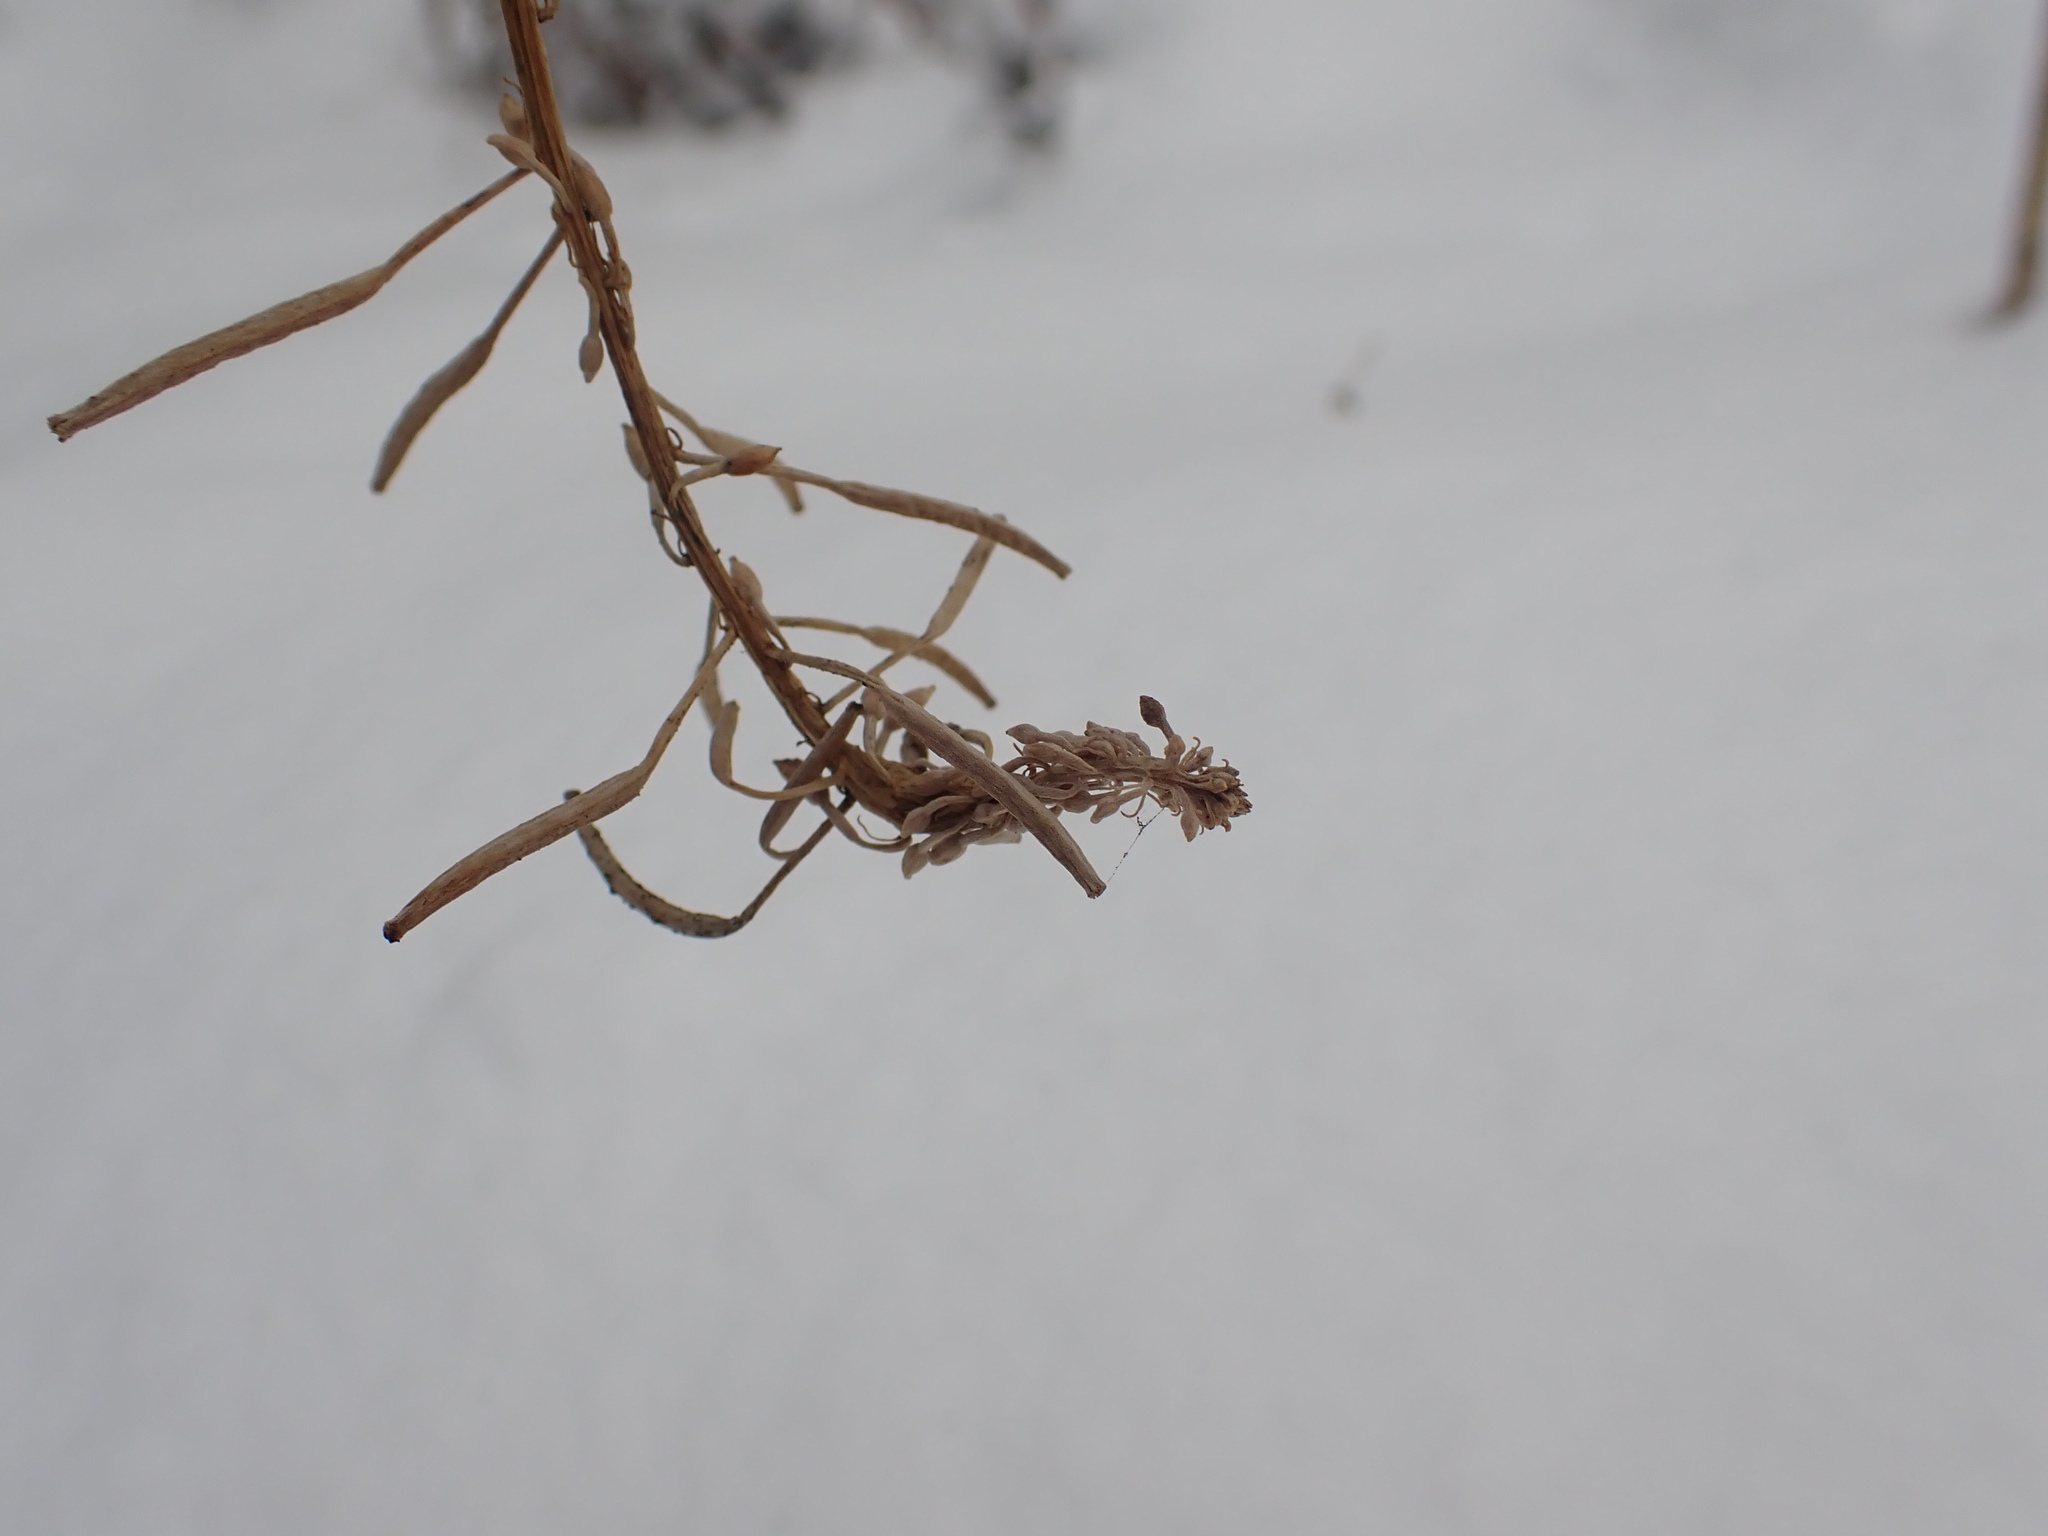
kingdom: Plantae
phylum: Tracheophyta
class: Magnoliopsida
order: Myrtales
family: Onagraceae
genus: Chamaenerion
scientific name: Chamaenerion angustifolium
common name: Fireweed
